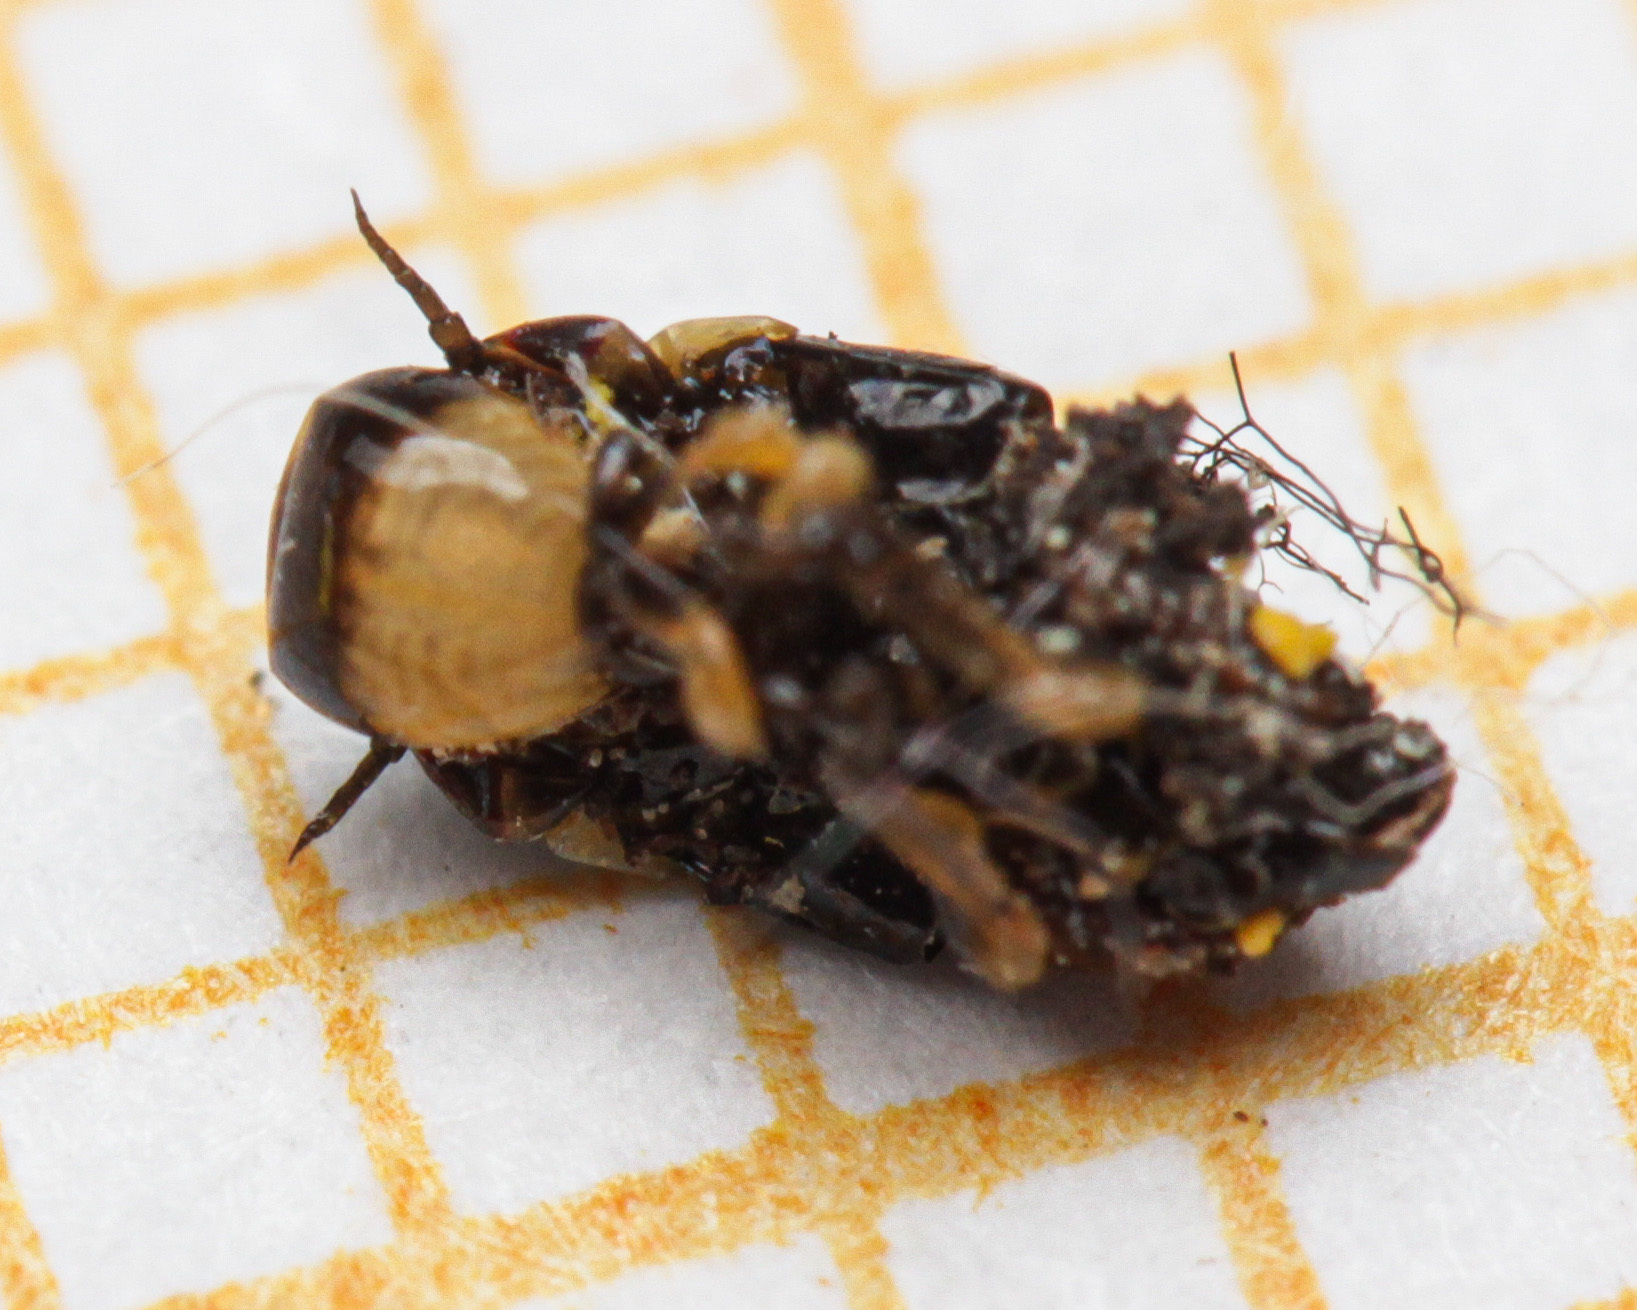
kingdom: Animalia
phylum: Arthropoda
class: Insecta
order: Hemiptera
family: Aphrophoridae
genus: Lepyronia
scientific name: Lepyronia coleoptrata
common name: Leafhopper
